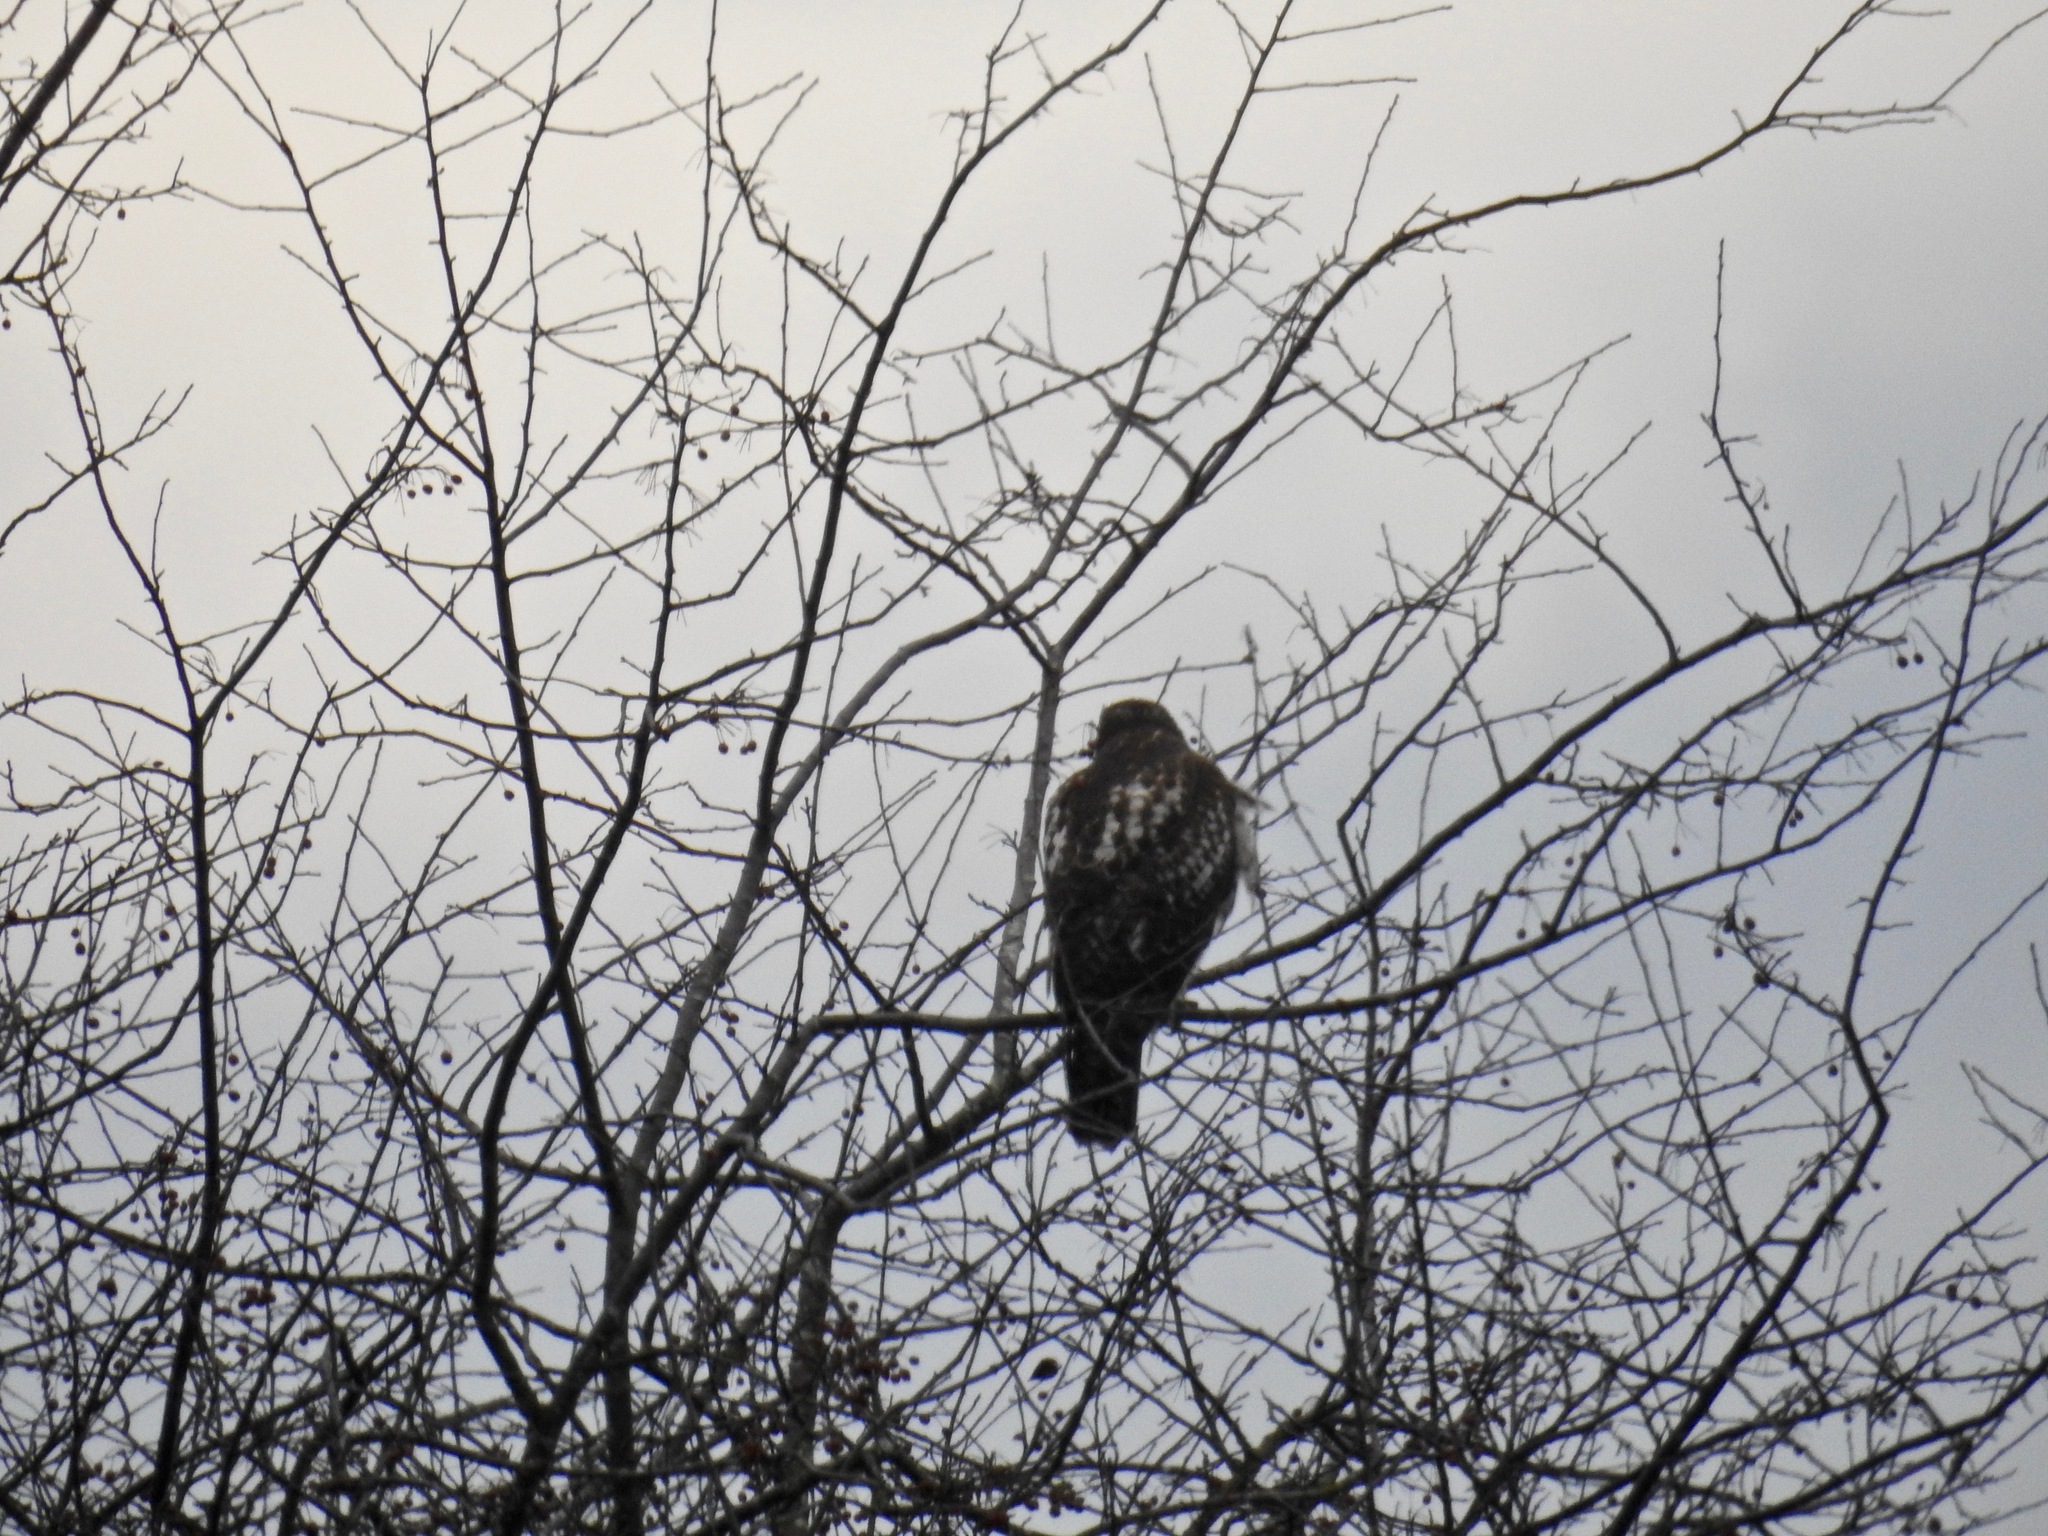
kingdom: Animalia
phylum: Chordata
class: Aves
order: Accipitriformes
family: Accipitridae
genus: Buteo
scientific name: Buteo jamaicensis
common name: Red-tailed hawk
